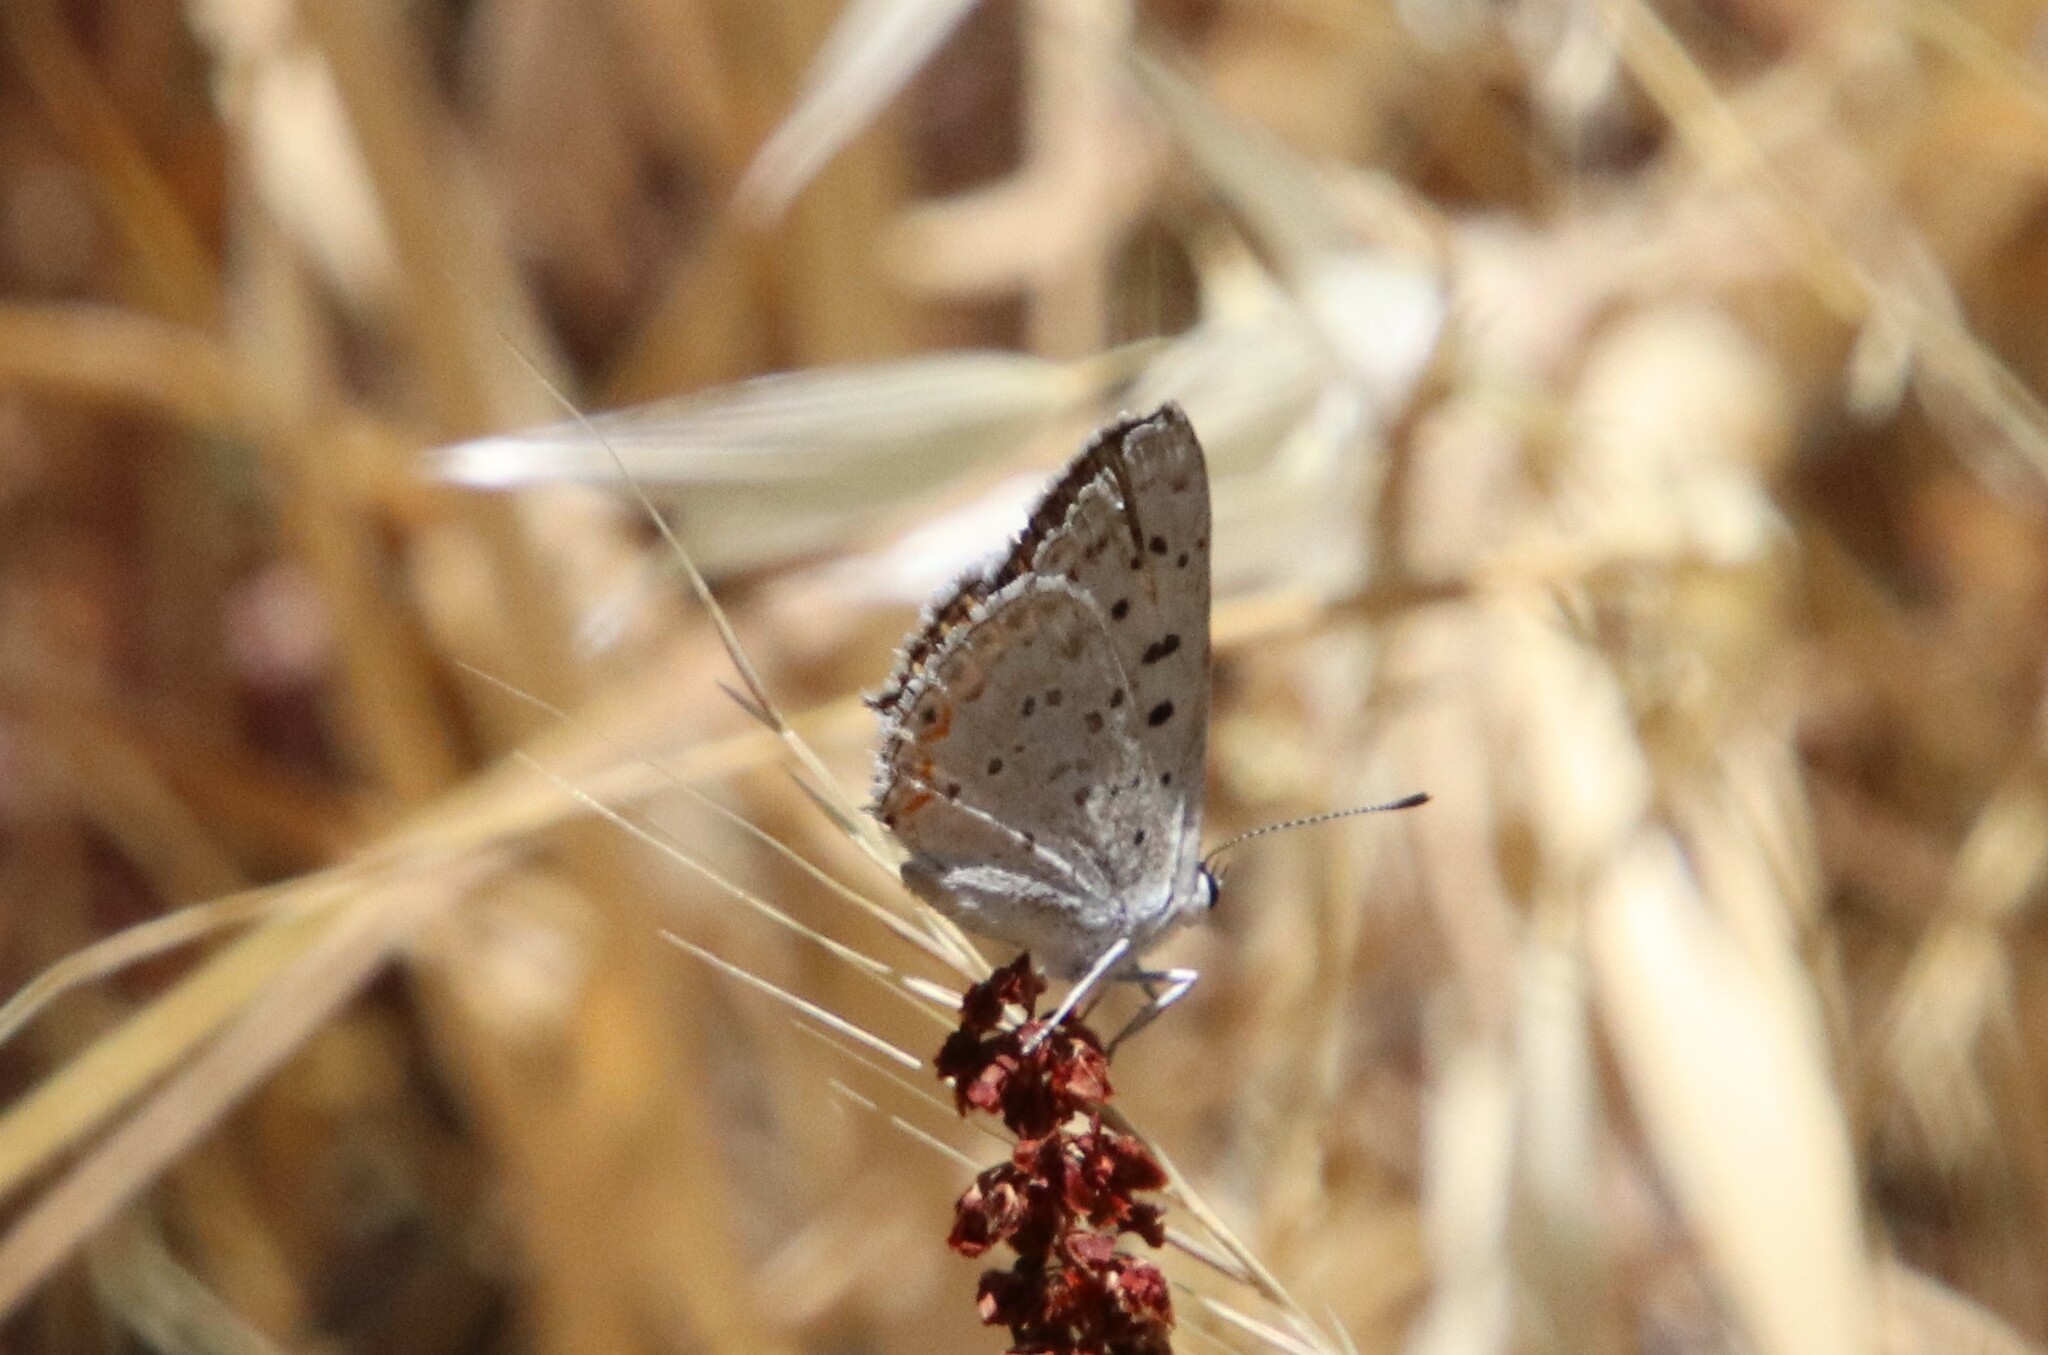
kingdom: Animalia
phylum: Arthropoda
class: Insecta
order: Lepidoptera
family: Lycaenidae
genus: Tharsalea
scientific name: Tharsalea xanthoides
